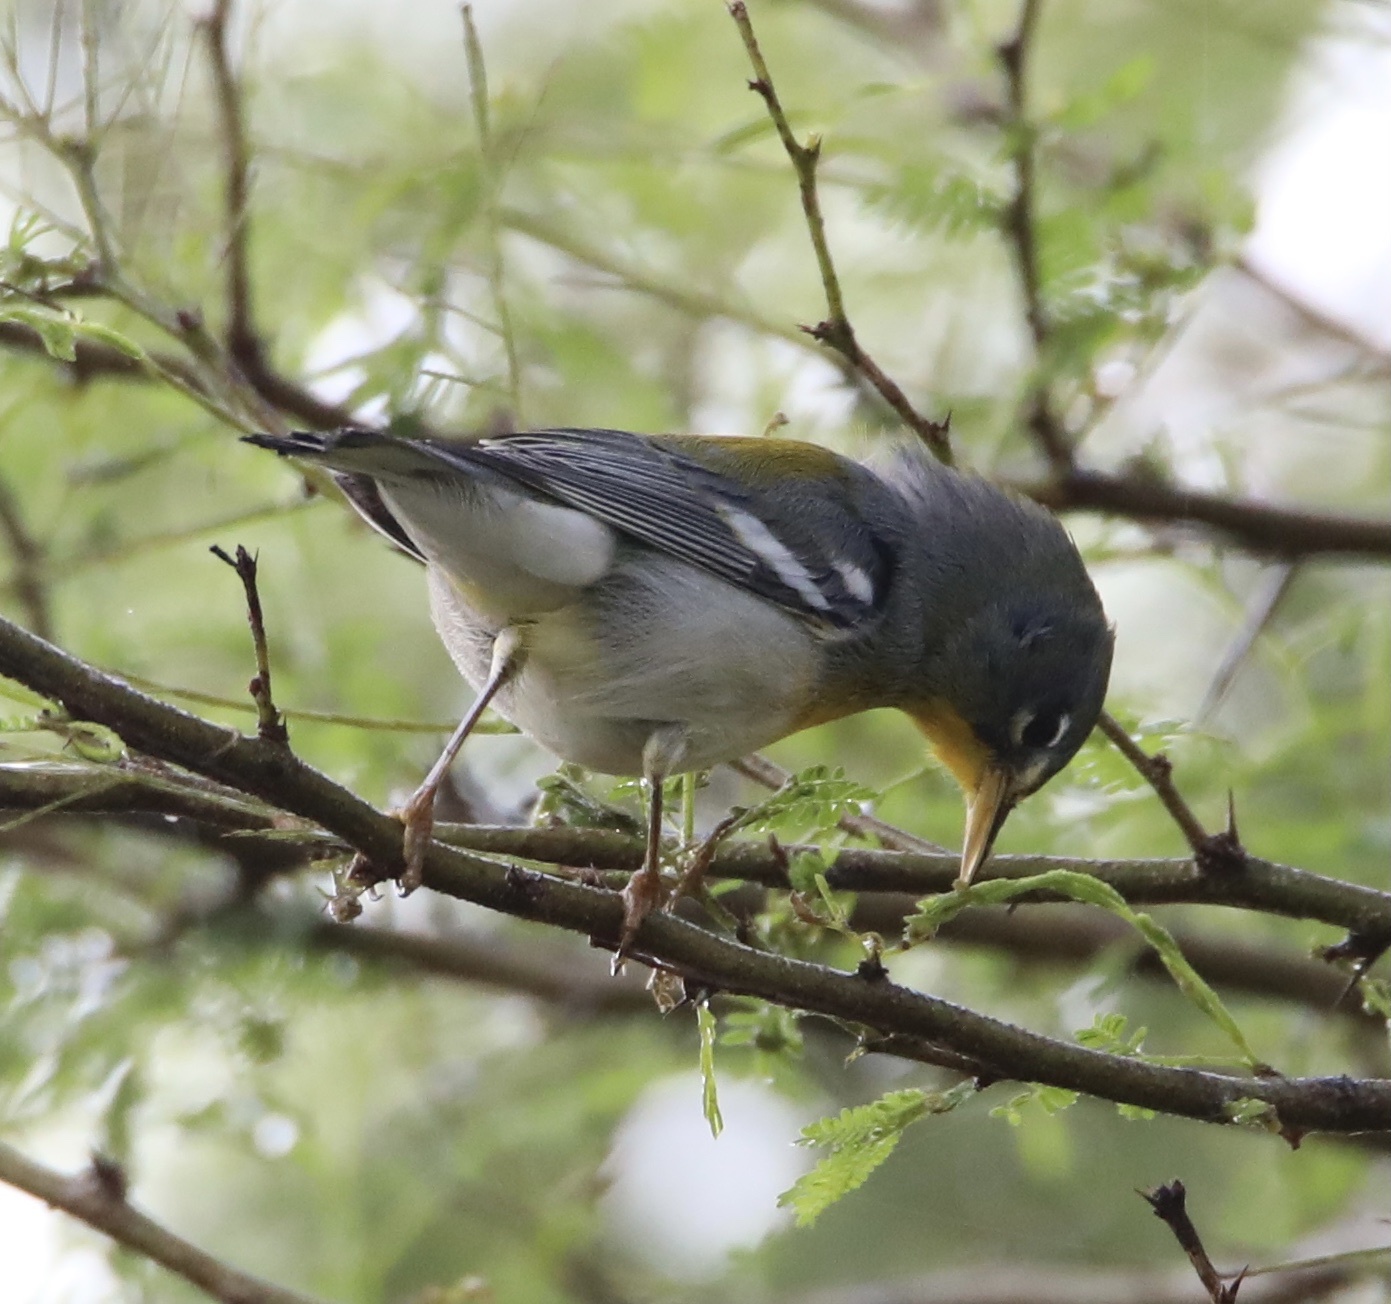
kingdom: Animalia
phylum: Chordata
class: Aves
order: Passeriformes
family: Parulidae
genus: Setophaga
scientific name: Setophaga americana
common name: Northern parula
